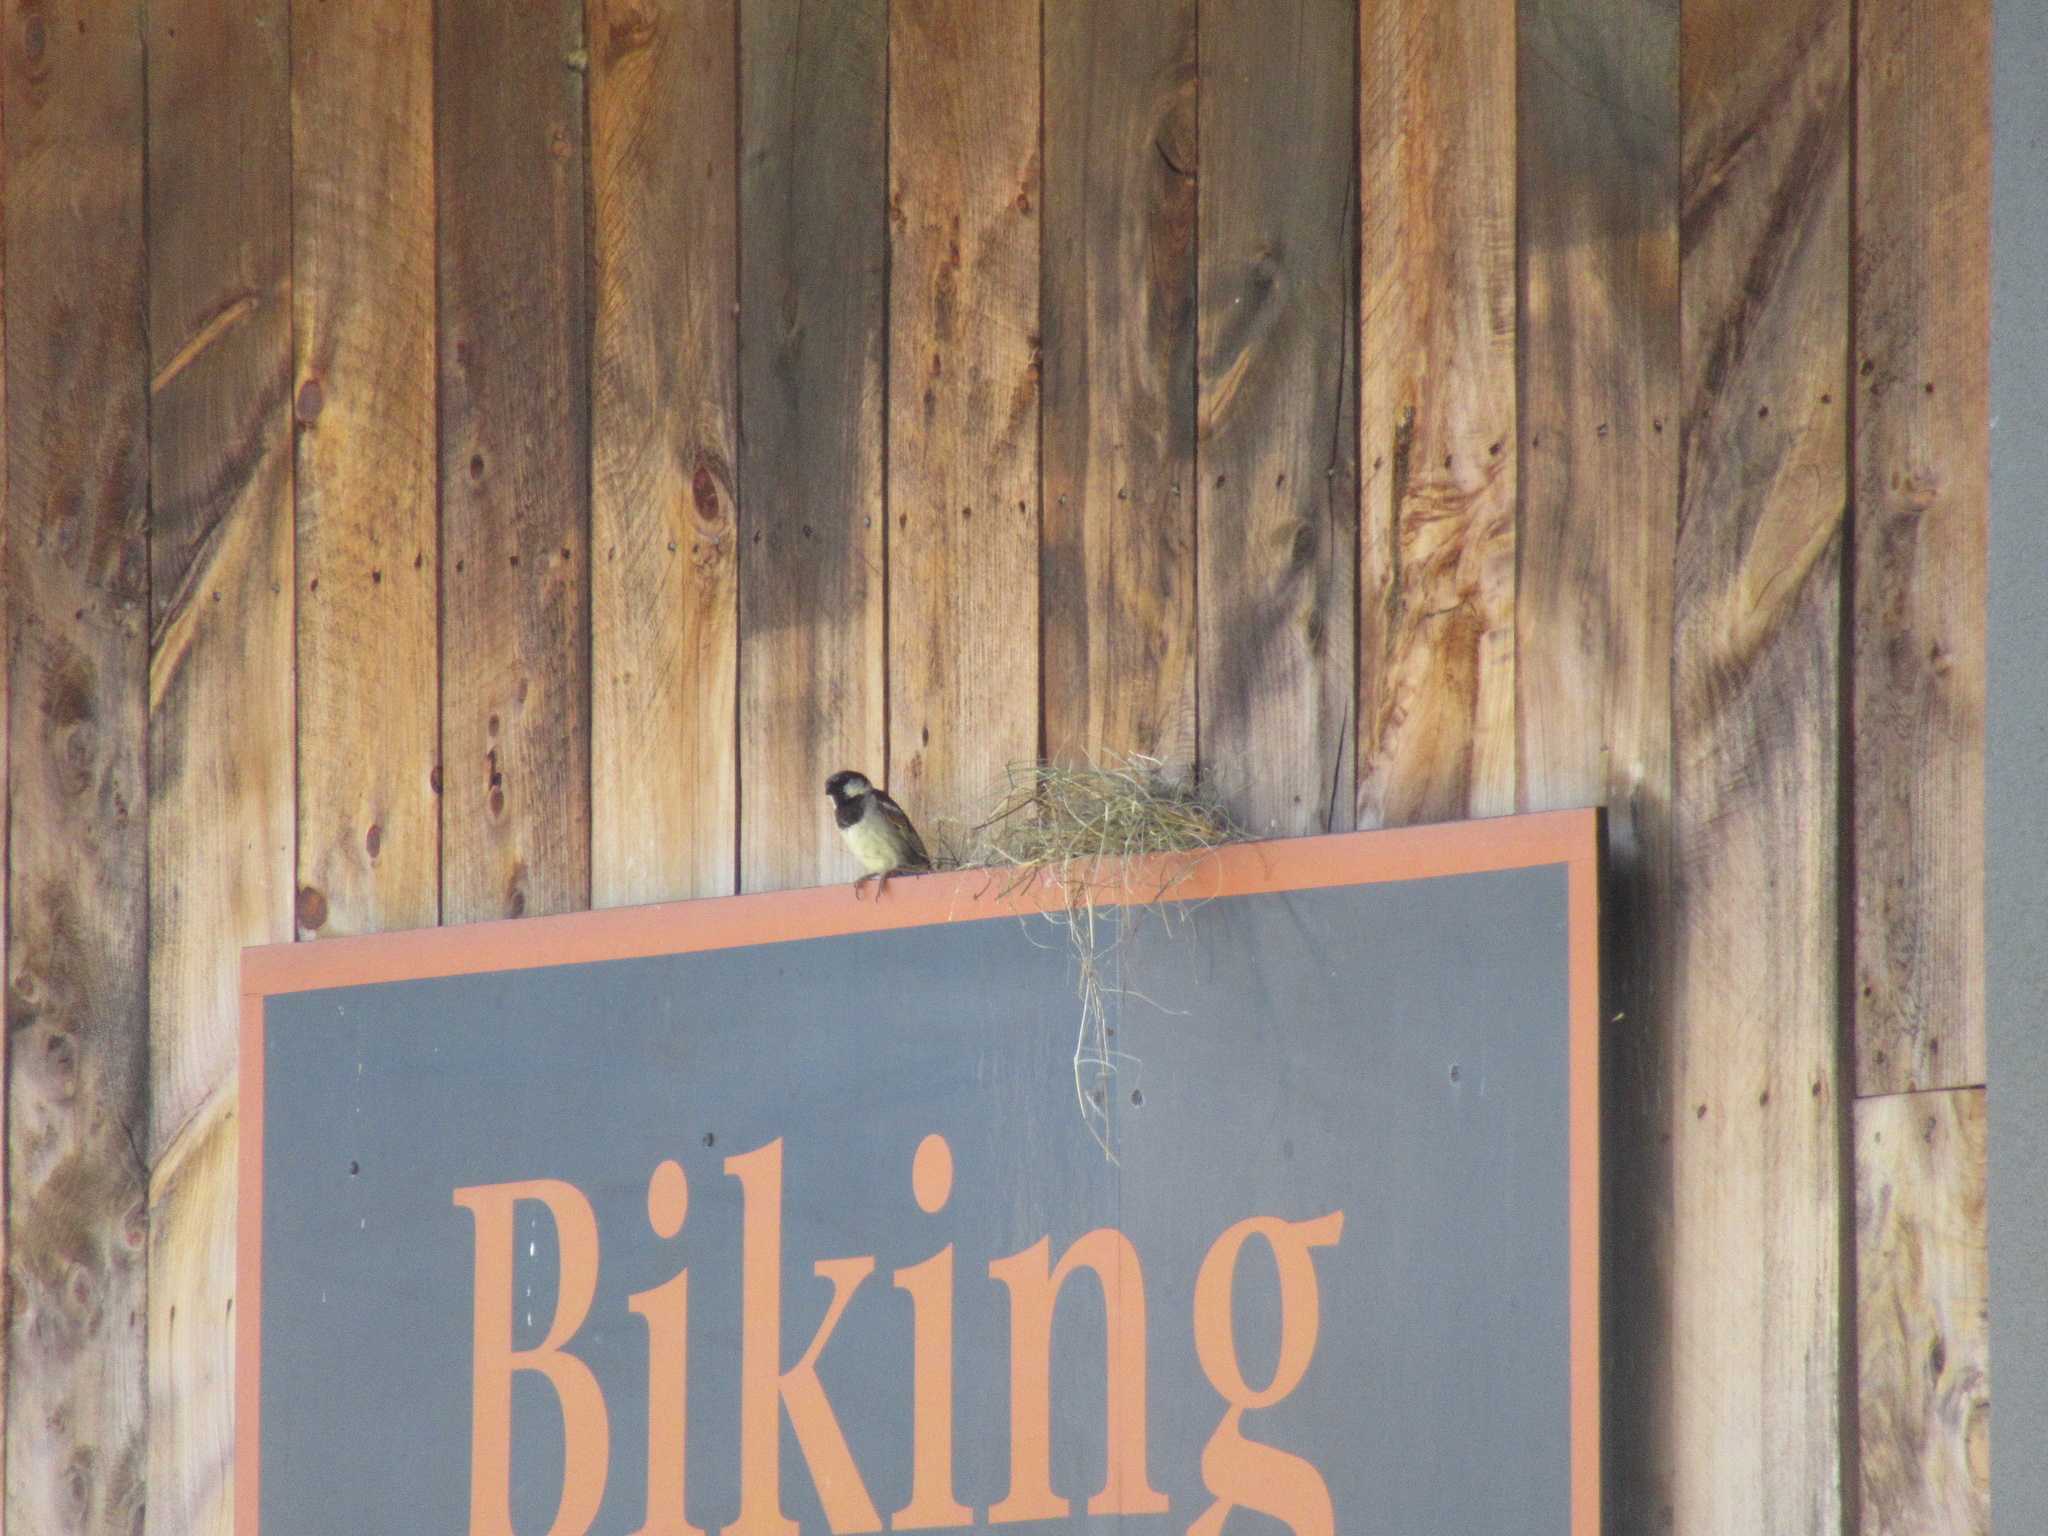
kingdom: Animalia
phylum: Chordata
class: Aves
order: Passeriformes
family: Passeridae
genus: Passer
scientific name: Passer domesticus
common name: House sparrow
